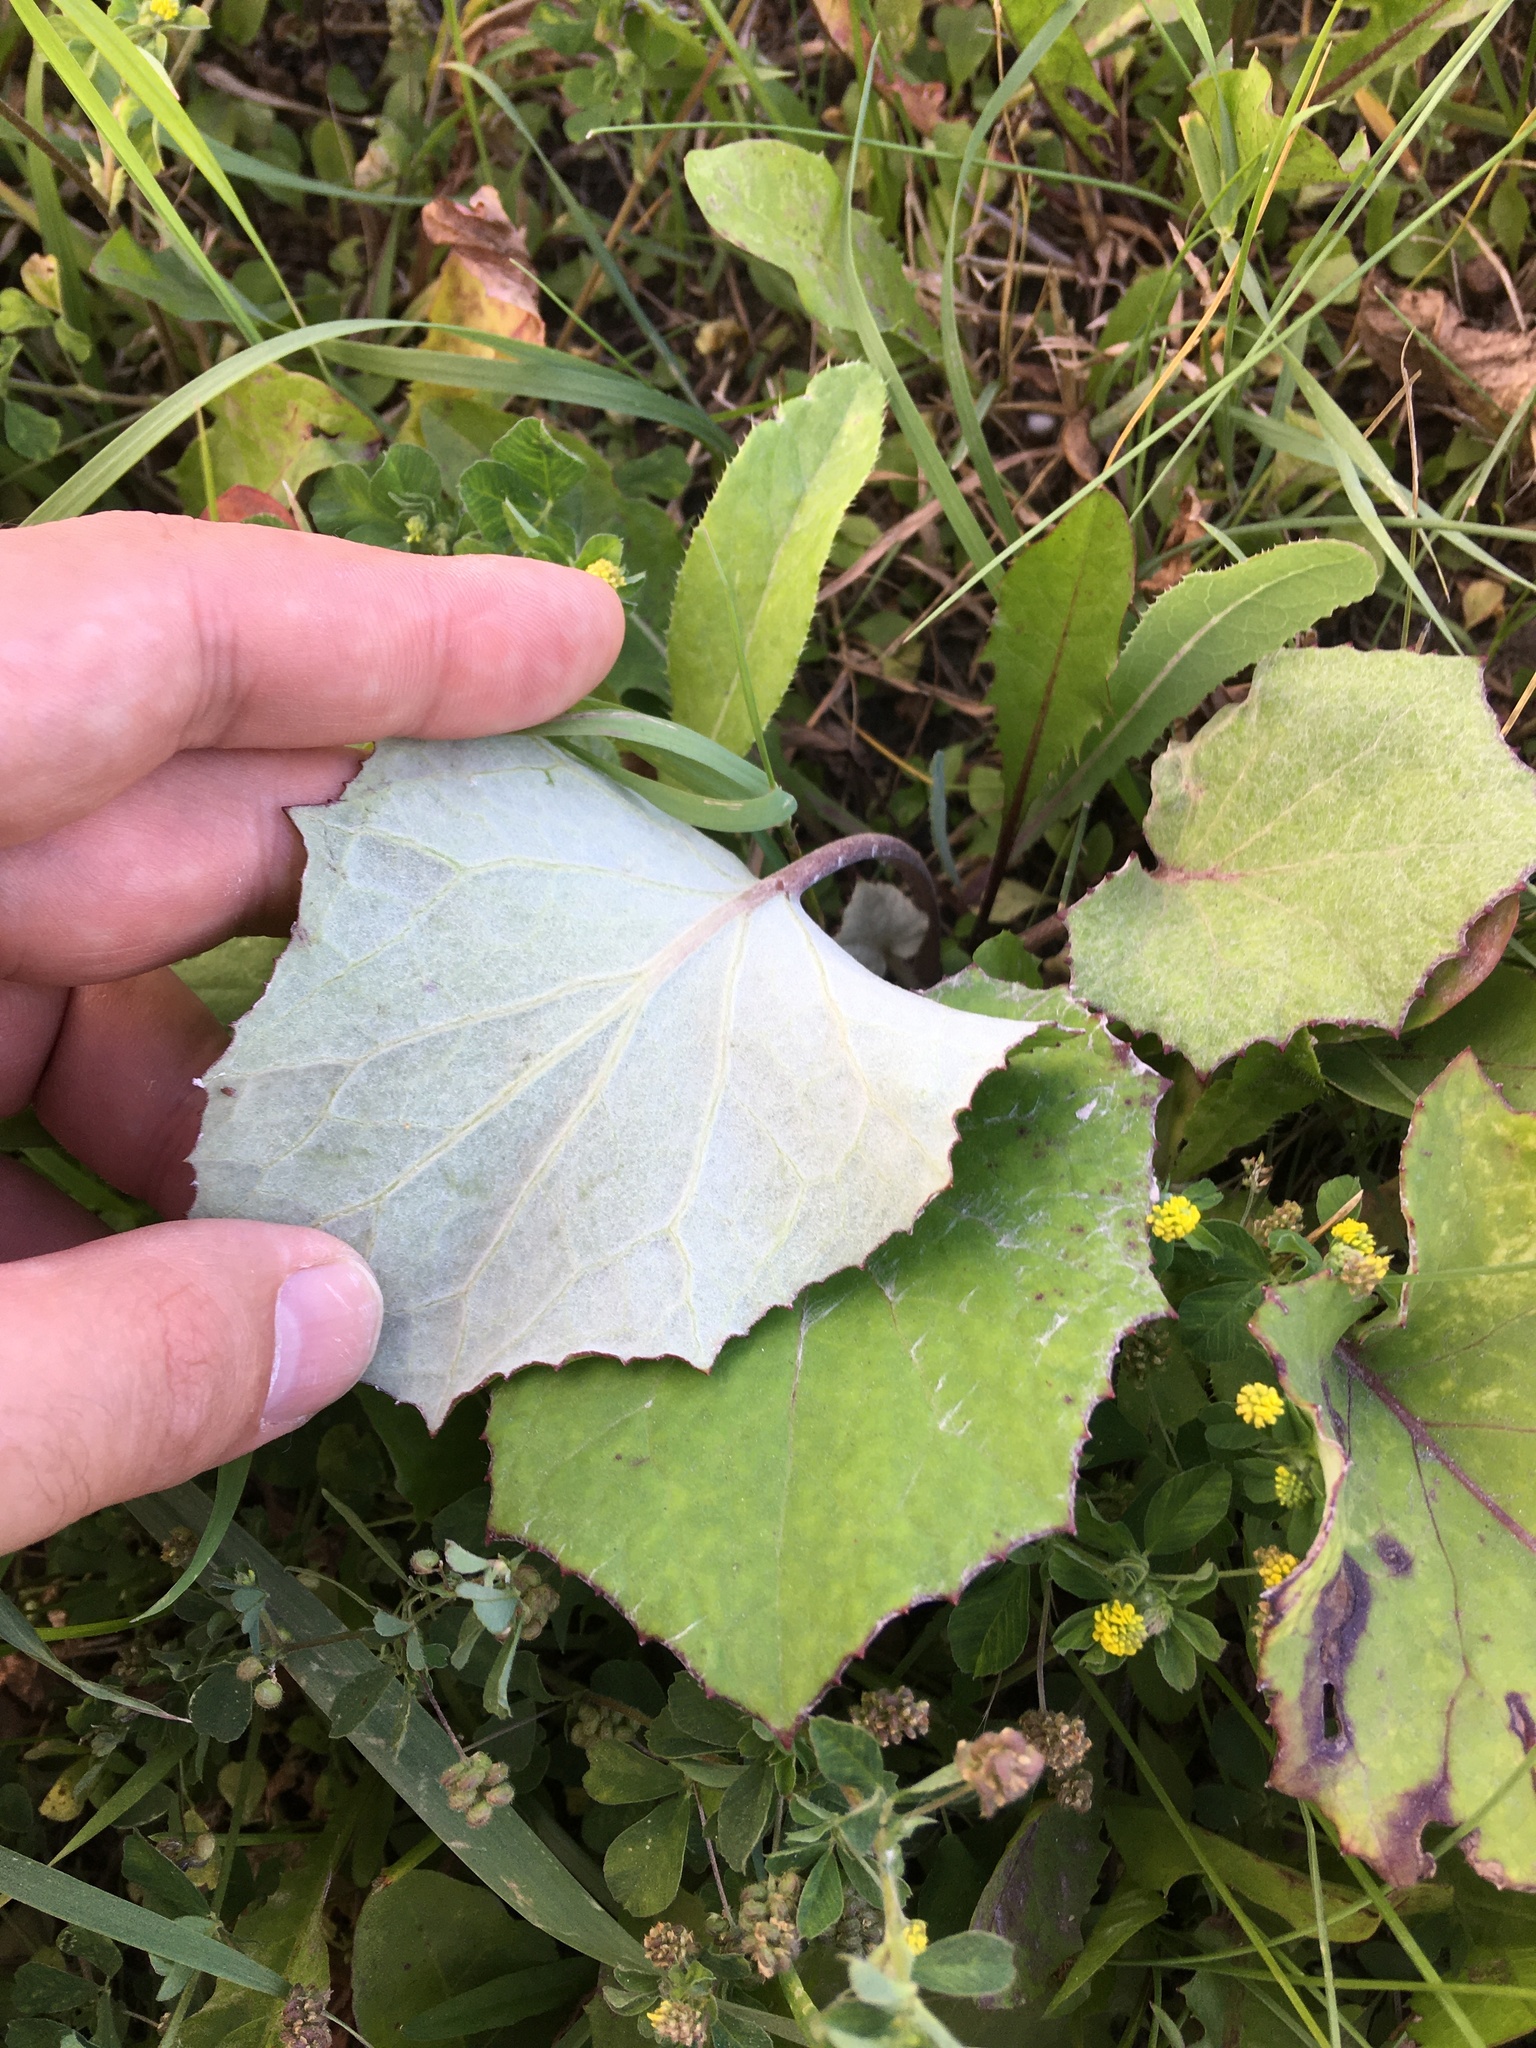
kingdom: Plantae
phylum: Tracheophyta
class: Magnoliopsida
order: Asterales
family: Asteraceae
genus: Tussilago
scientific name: Tussilago farfara
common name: Coltsfoot
